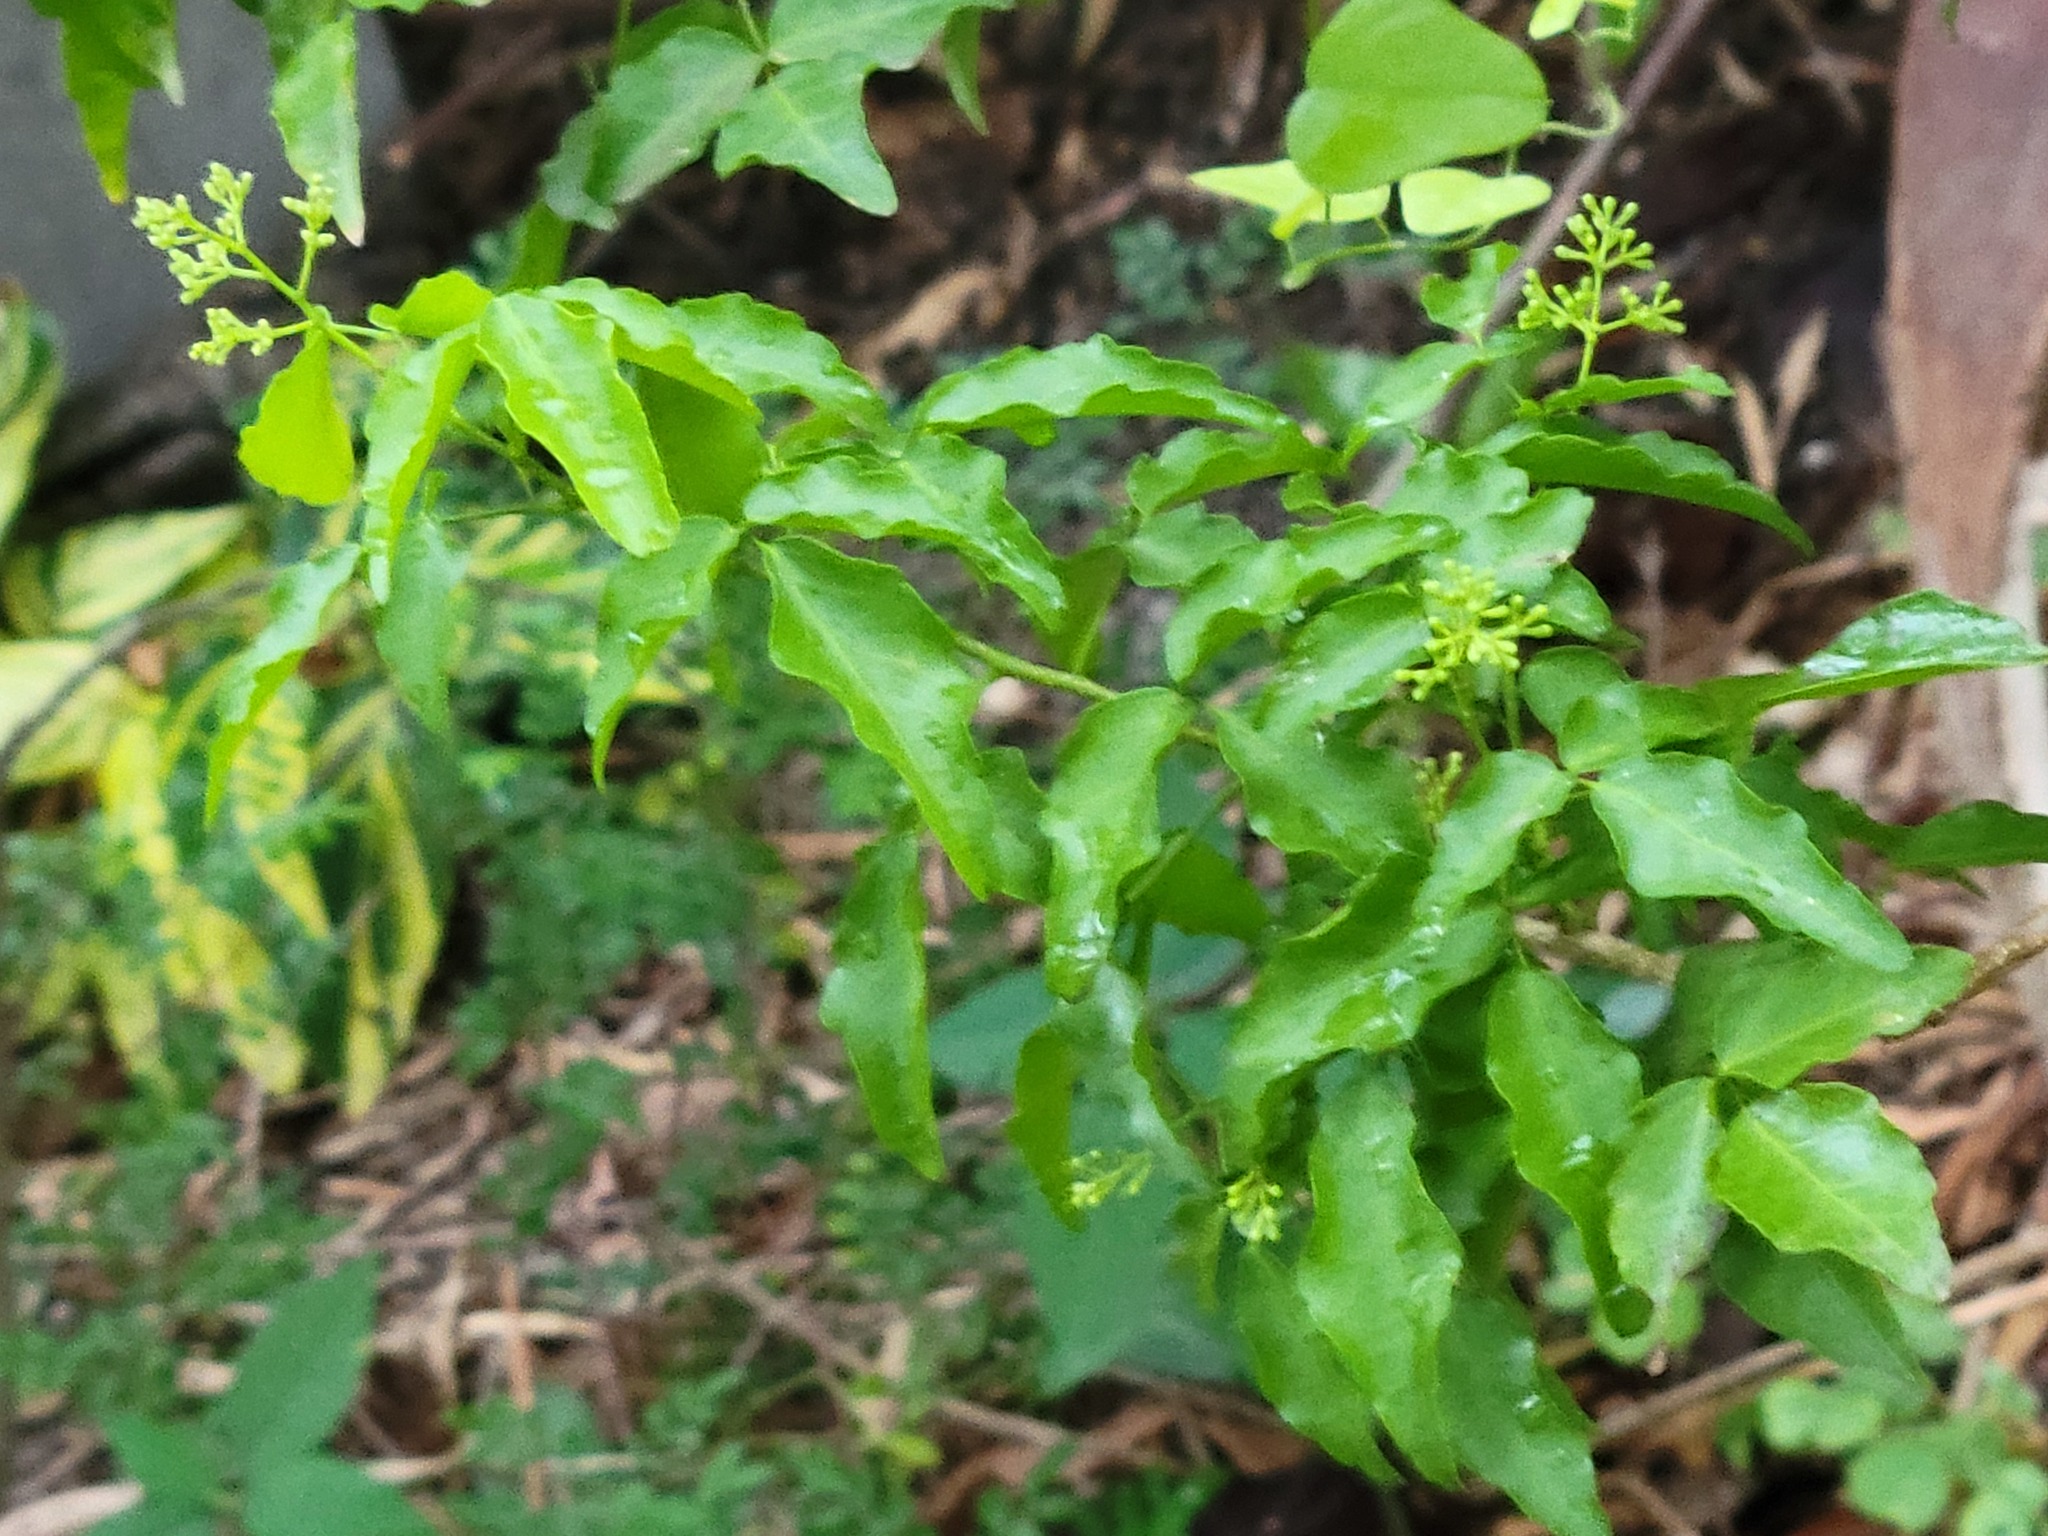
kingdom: Plantae
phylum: Tracheophyta
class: Magnoliopsida
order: Sapindales
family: Rutaceae
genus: Amyris
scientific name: Amyris texana
